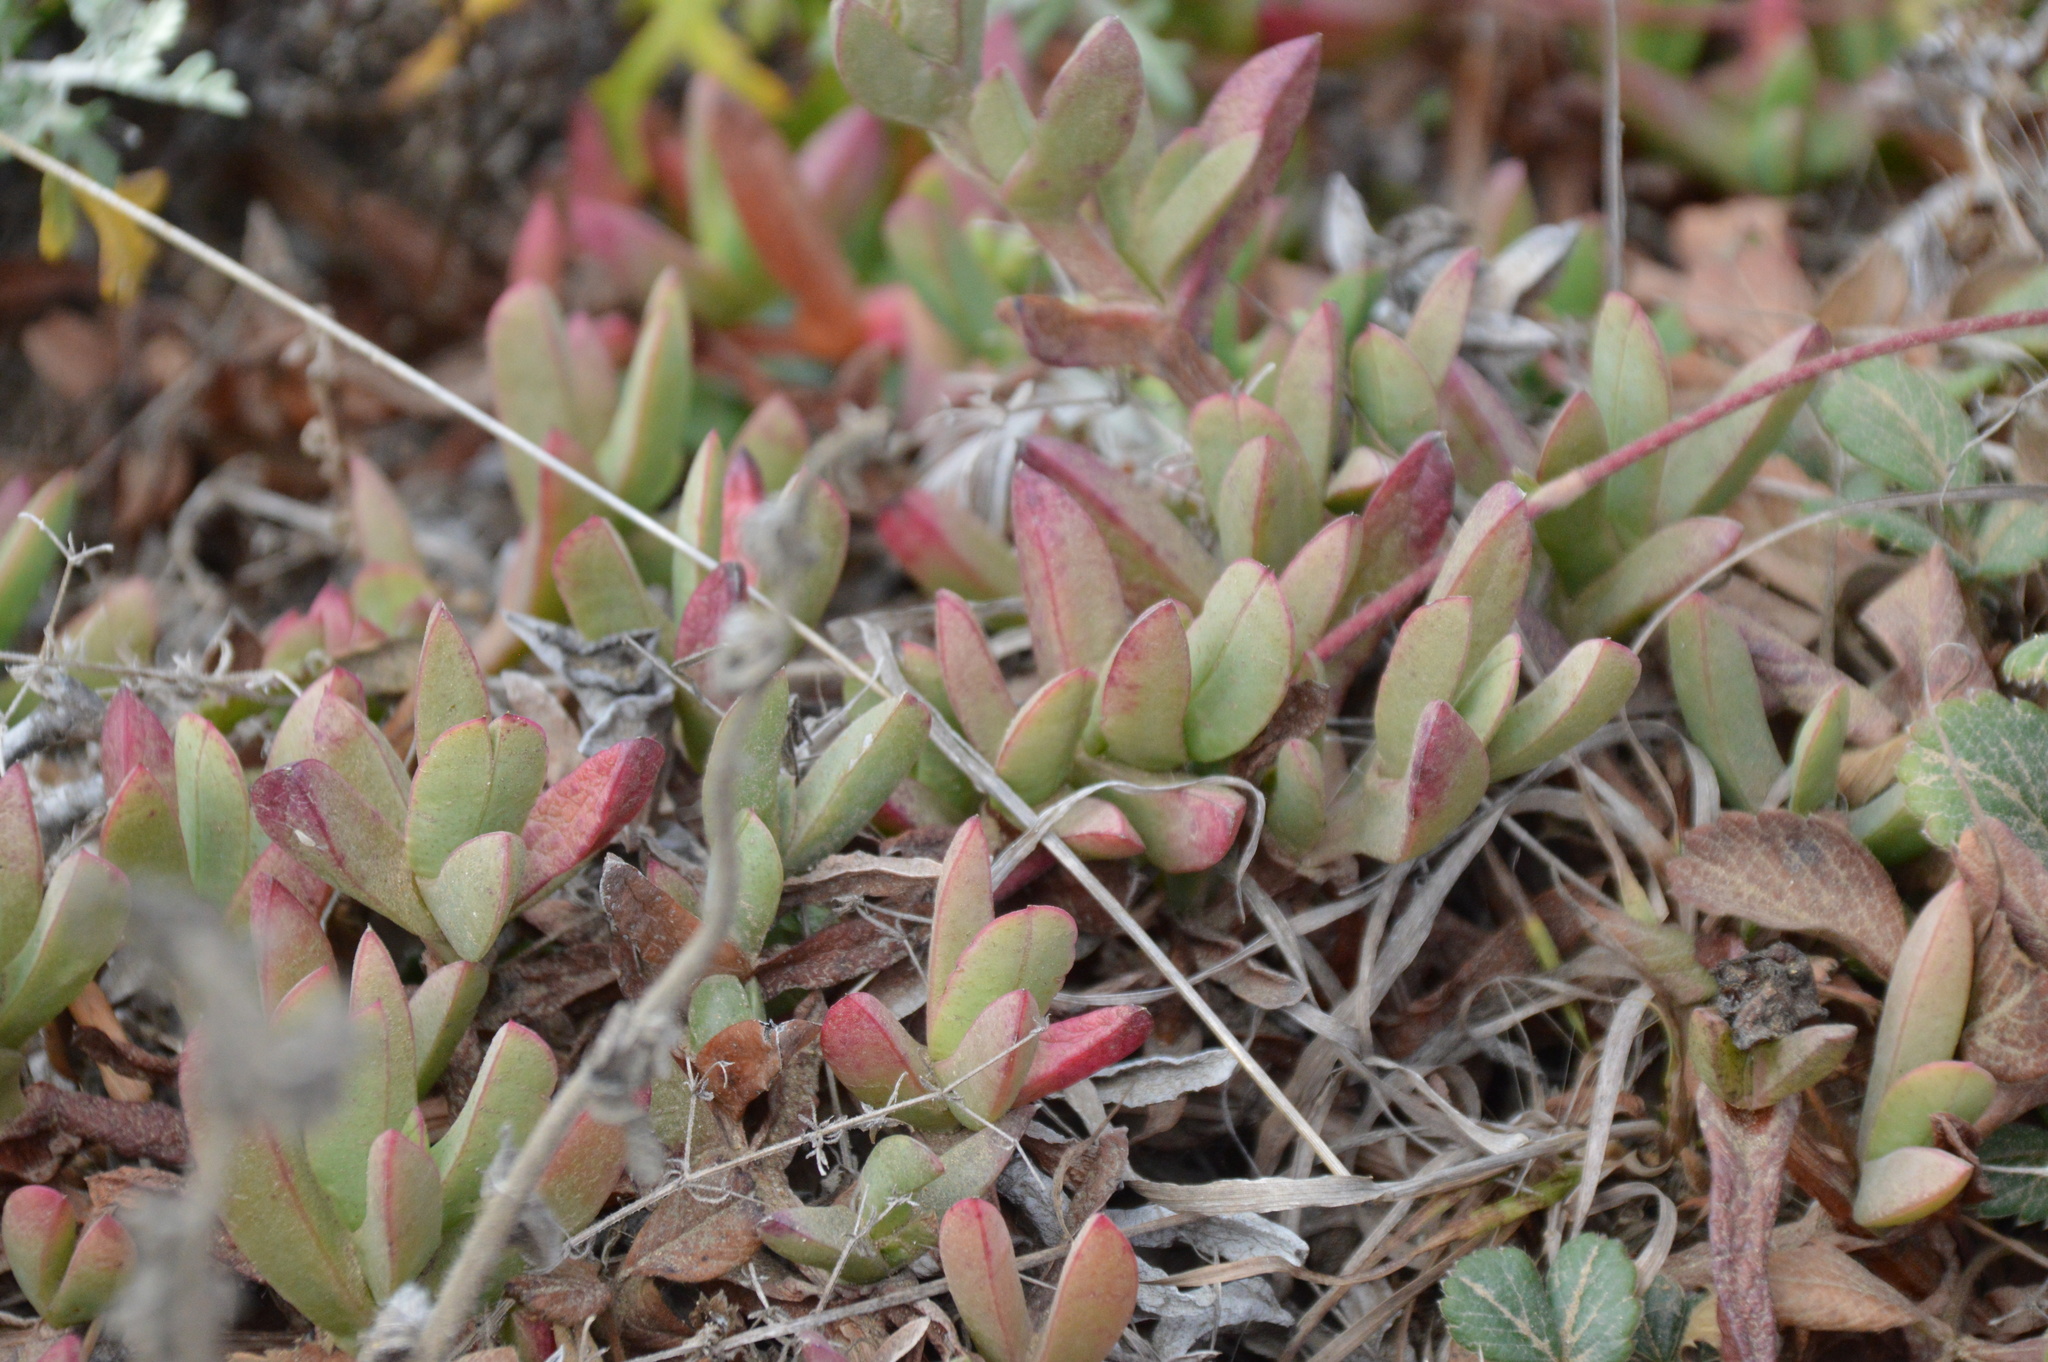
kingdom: Plantae
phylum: Tracheophyta
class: Magnoliopsida
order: Caryophyllales
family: Aizoaceae
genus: Carpobrotus
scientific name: Carpobrotus chilensis
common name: Sea fig
